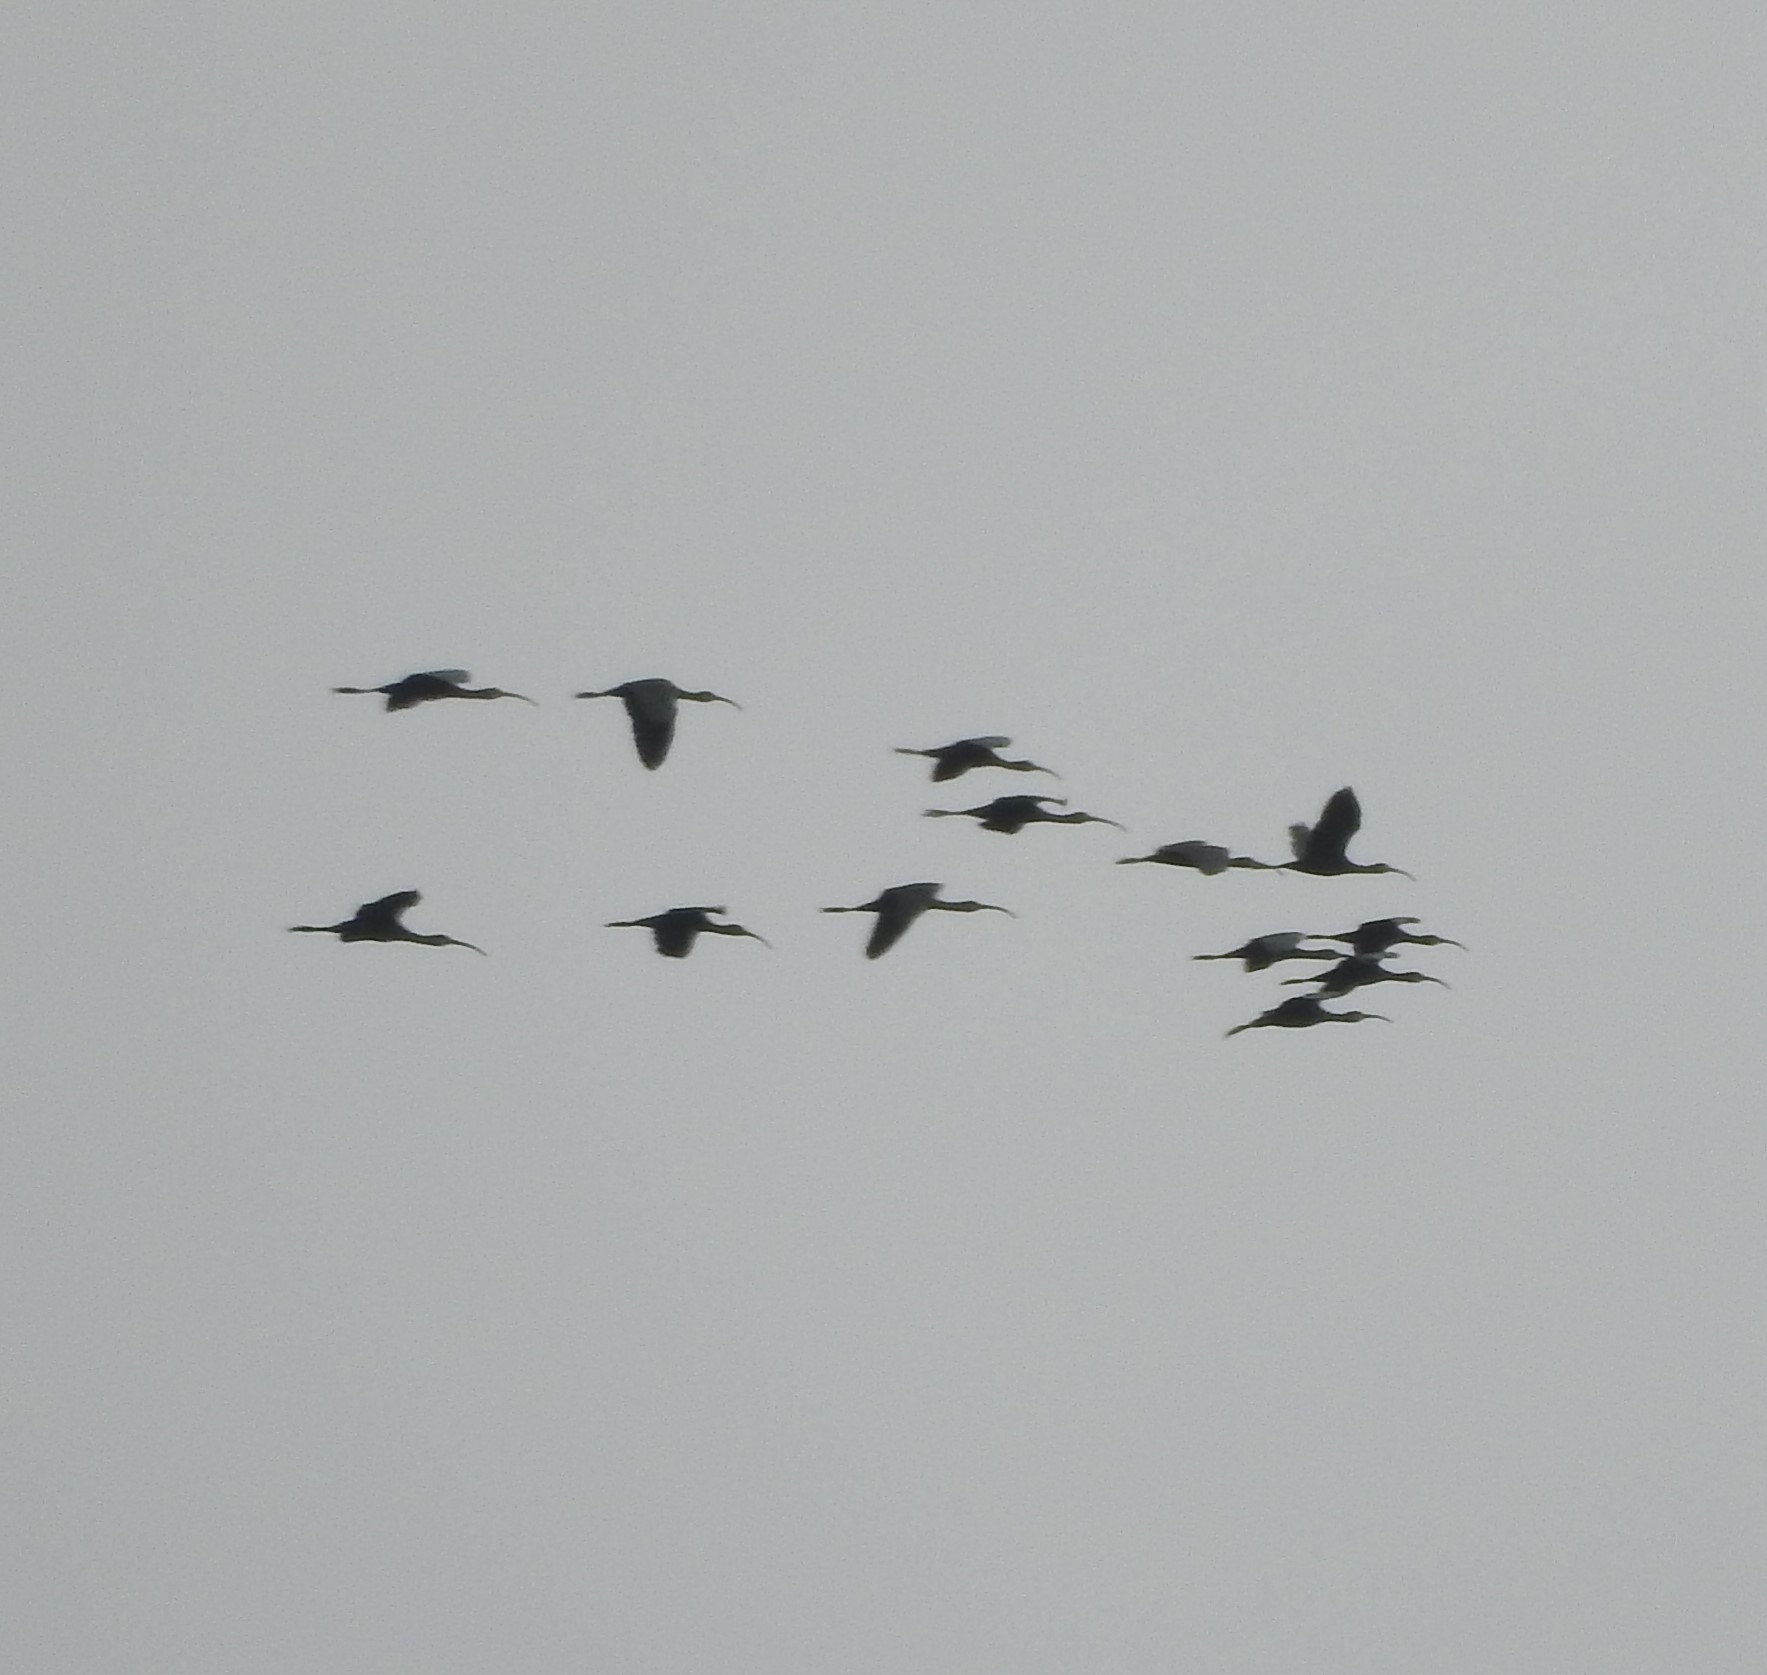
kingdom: Animalia
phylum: Chordata
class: Aves
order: Pelecaniformes
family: Threskiornithidae
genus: Plegadis
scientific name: Plegadis chihi
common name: White-faced ibis
